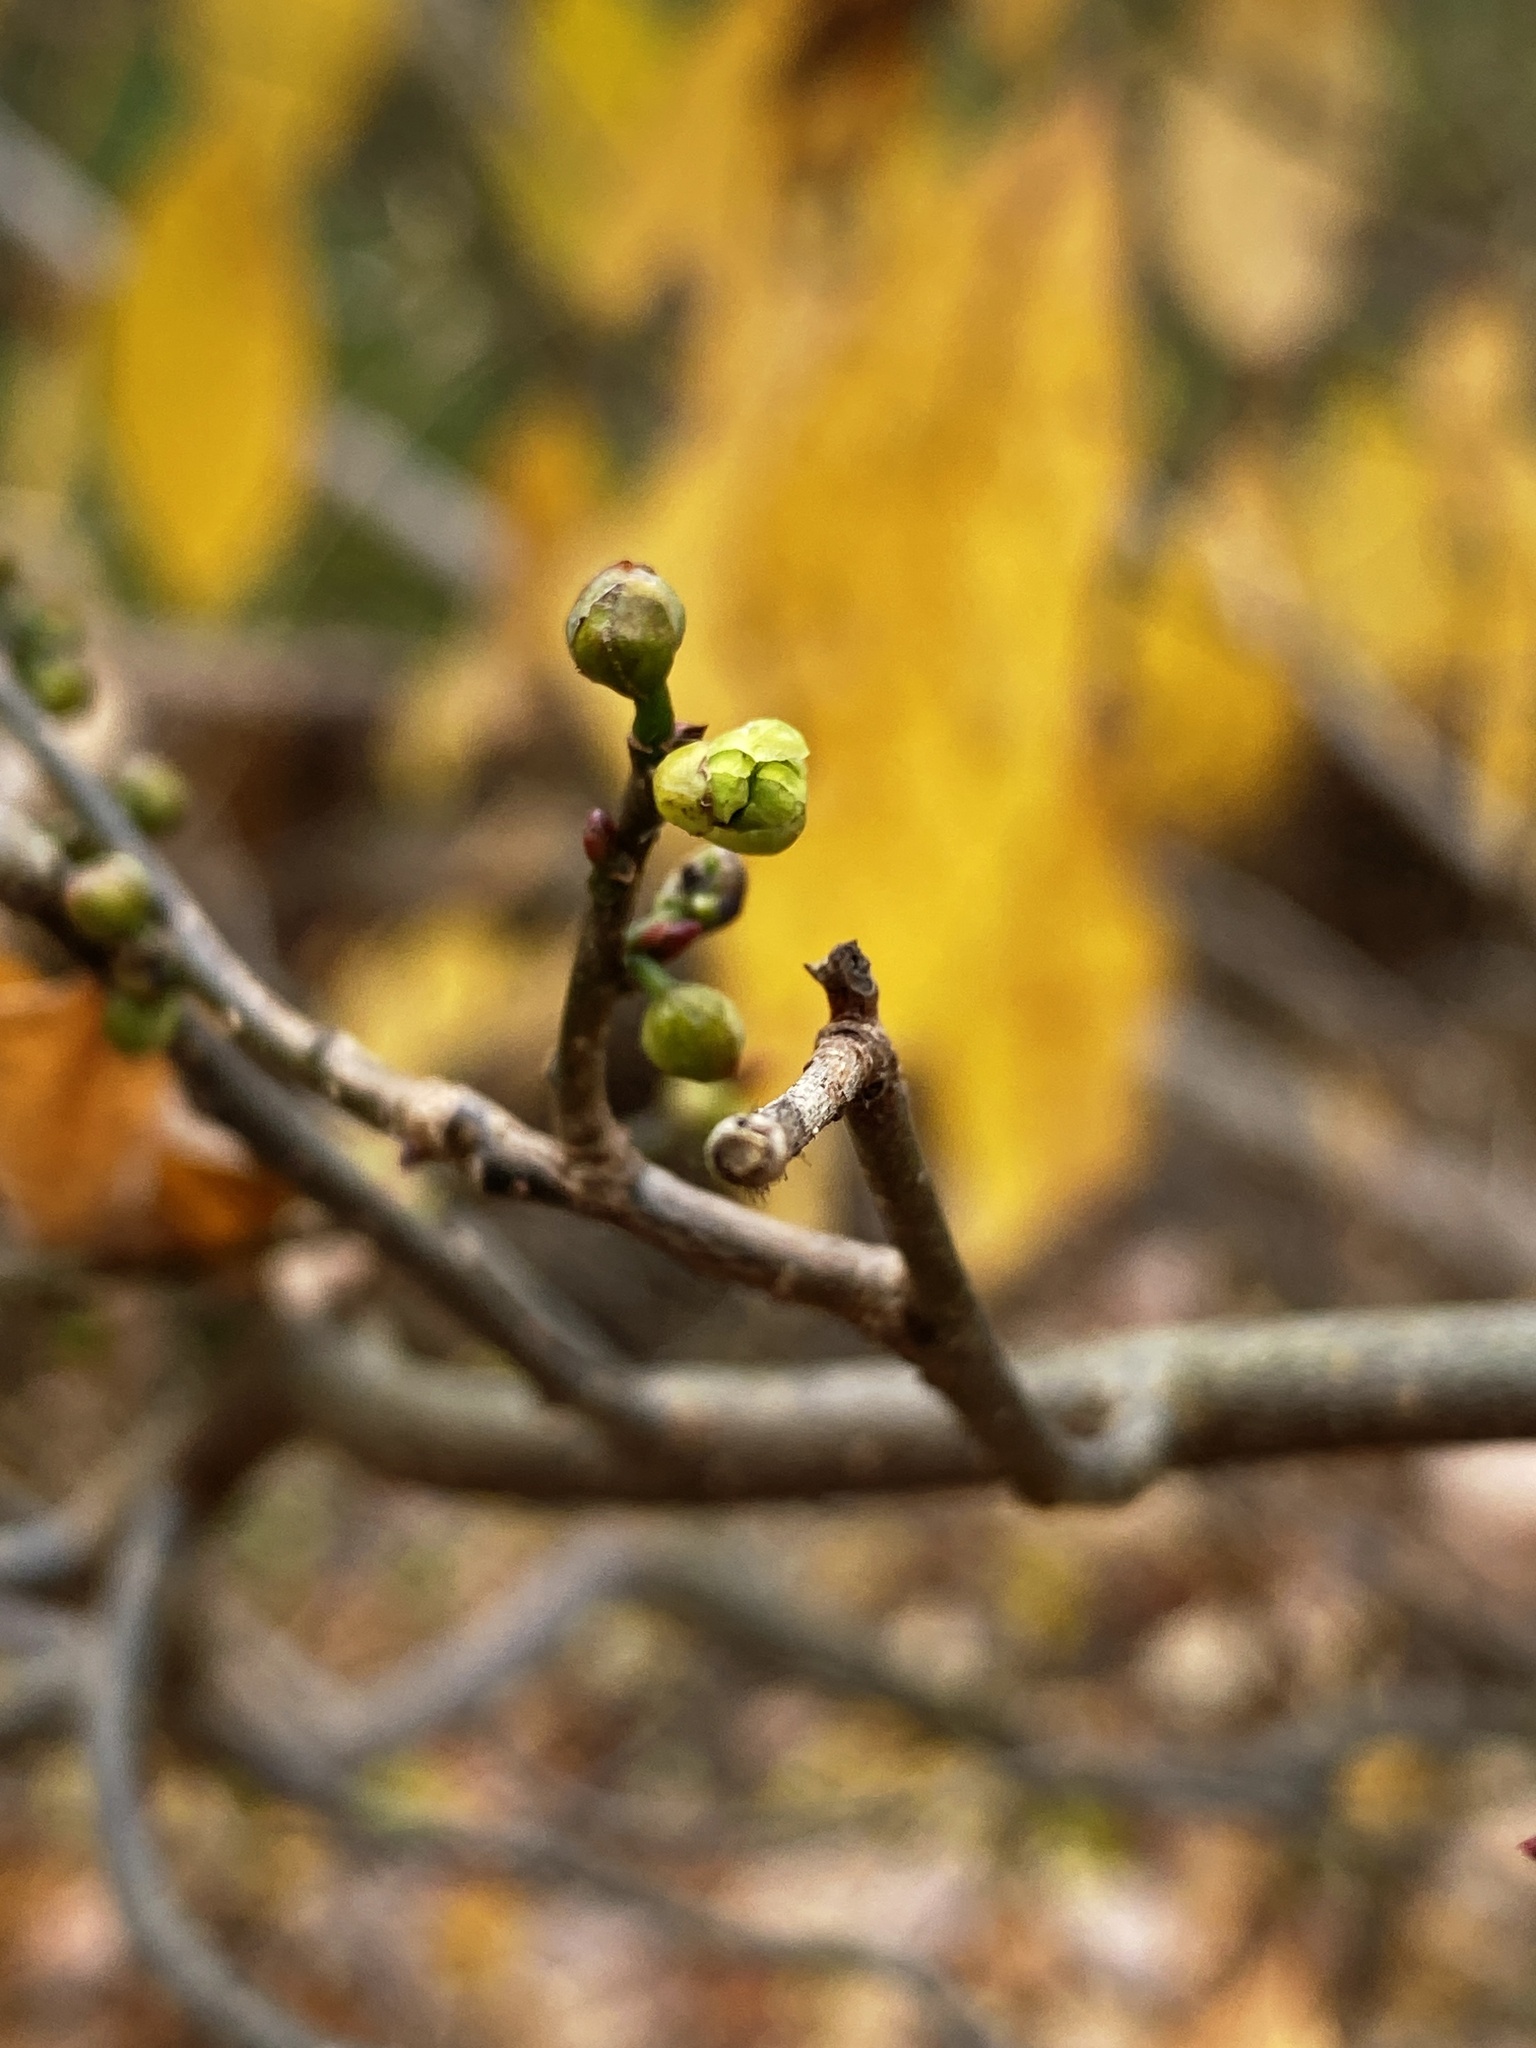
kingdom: Plantae
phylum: Tracheophyta
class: Magnoliopsida
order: Laurales
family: Lauraceae
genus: Lindera
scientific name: Lindera benzoin
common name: Spicebush
